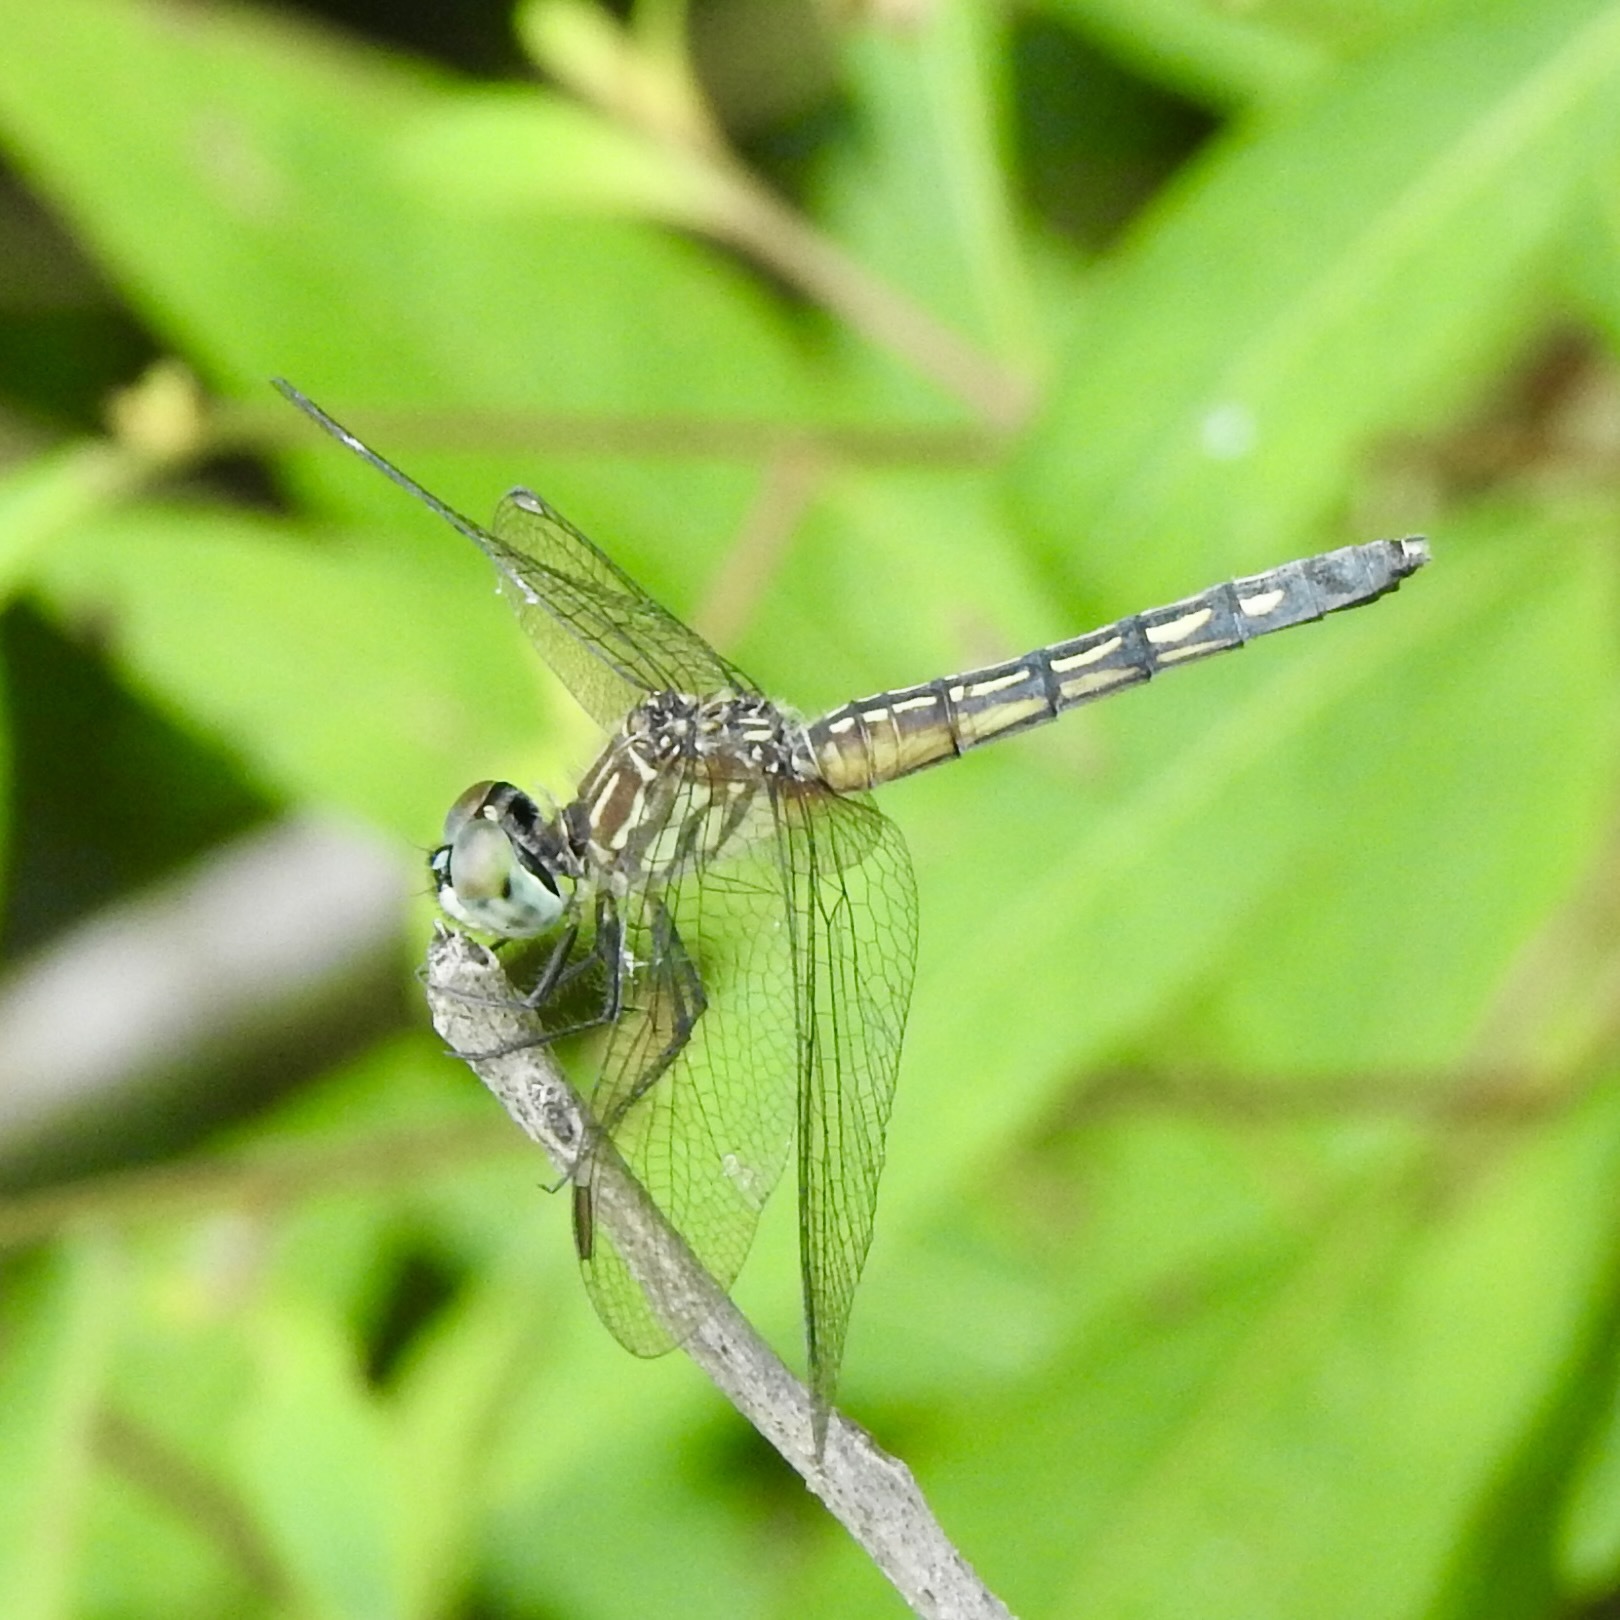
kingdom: Animalia
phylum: Arthropoda
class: Insecta
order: Odonata
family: Libellulidae
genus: Pachydiplax
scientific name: Pachydiplax longipennis
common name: Blue dasher
